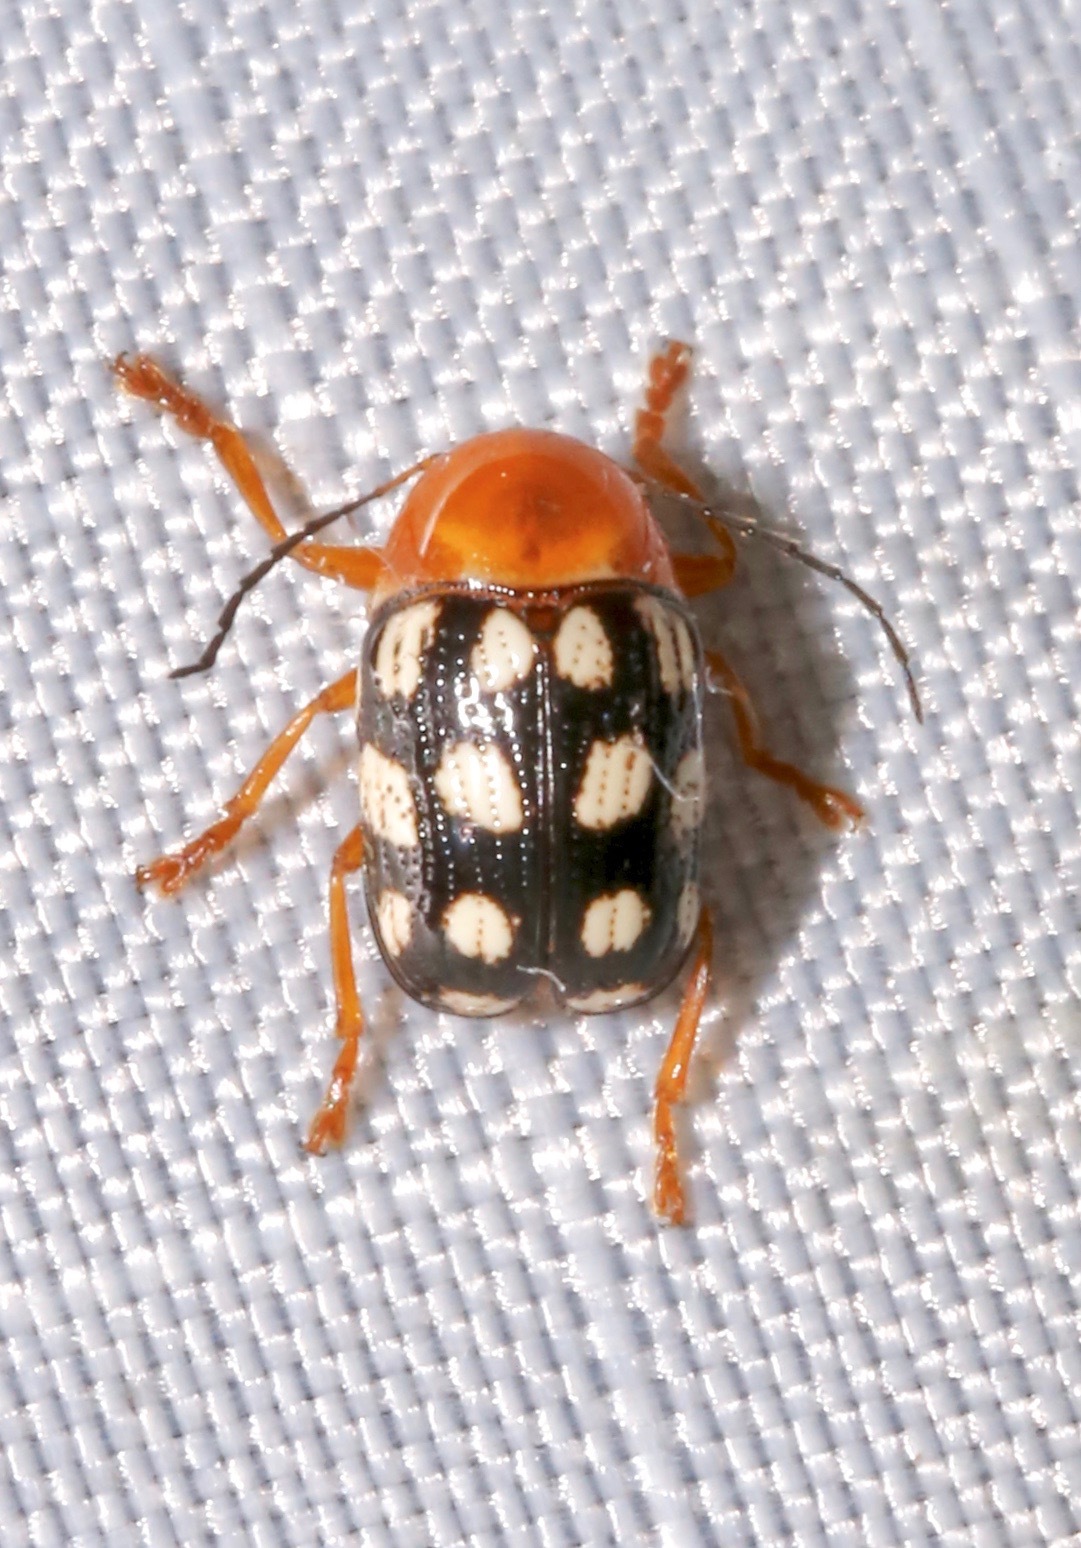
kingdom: Animalia
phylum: Arthropoda
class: Insecta
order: Coleoptera
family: Chrysomelidae
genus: Cryptocephalus
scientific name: Cryptocephalus guttulatus
